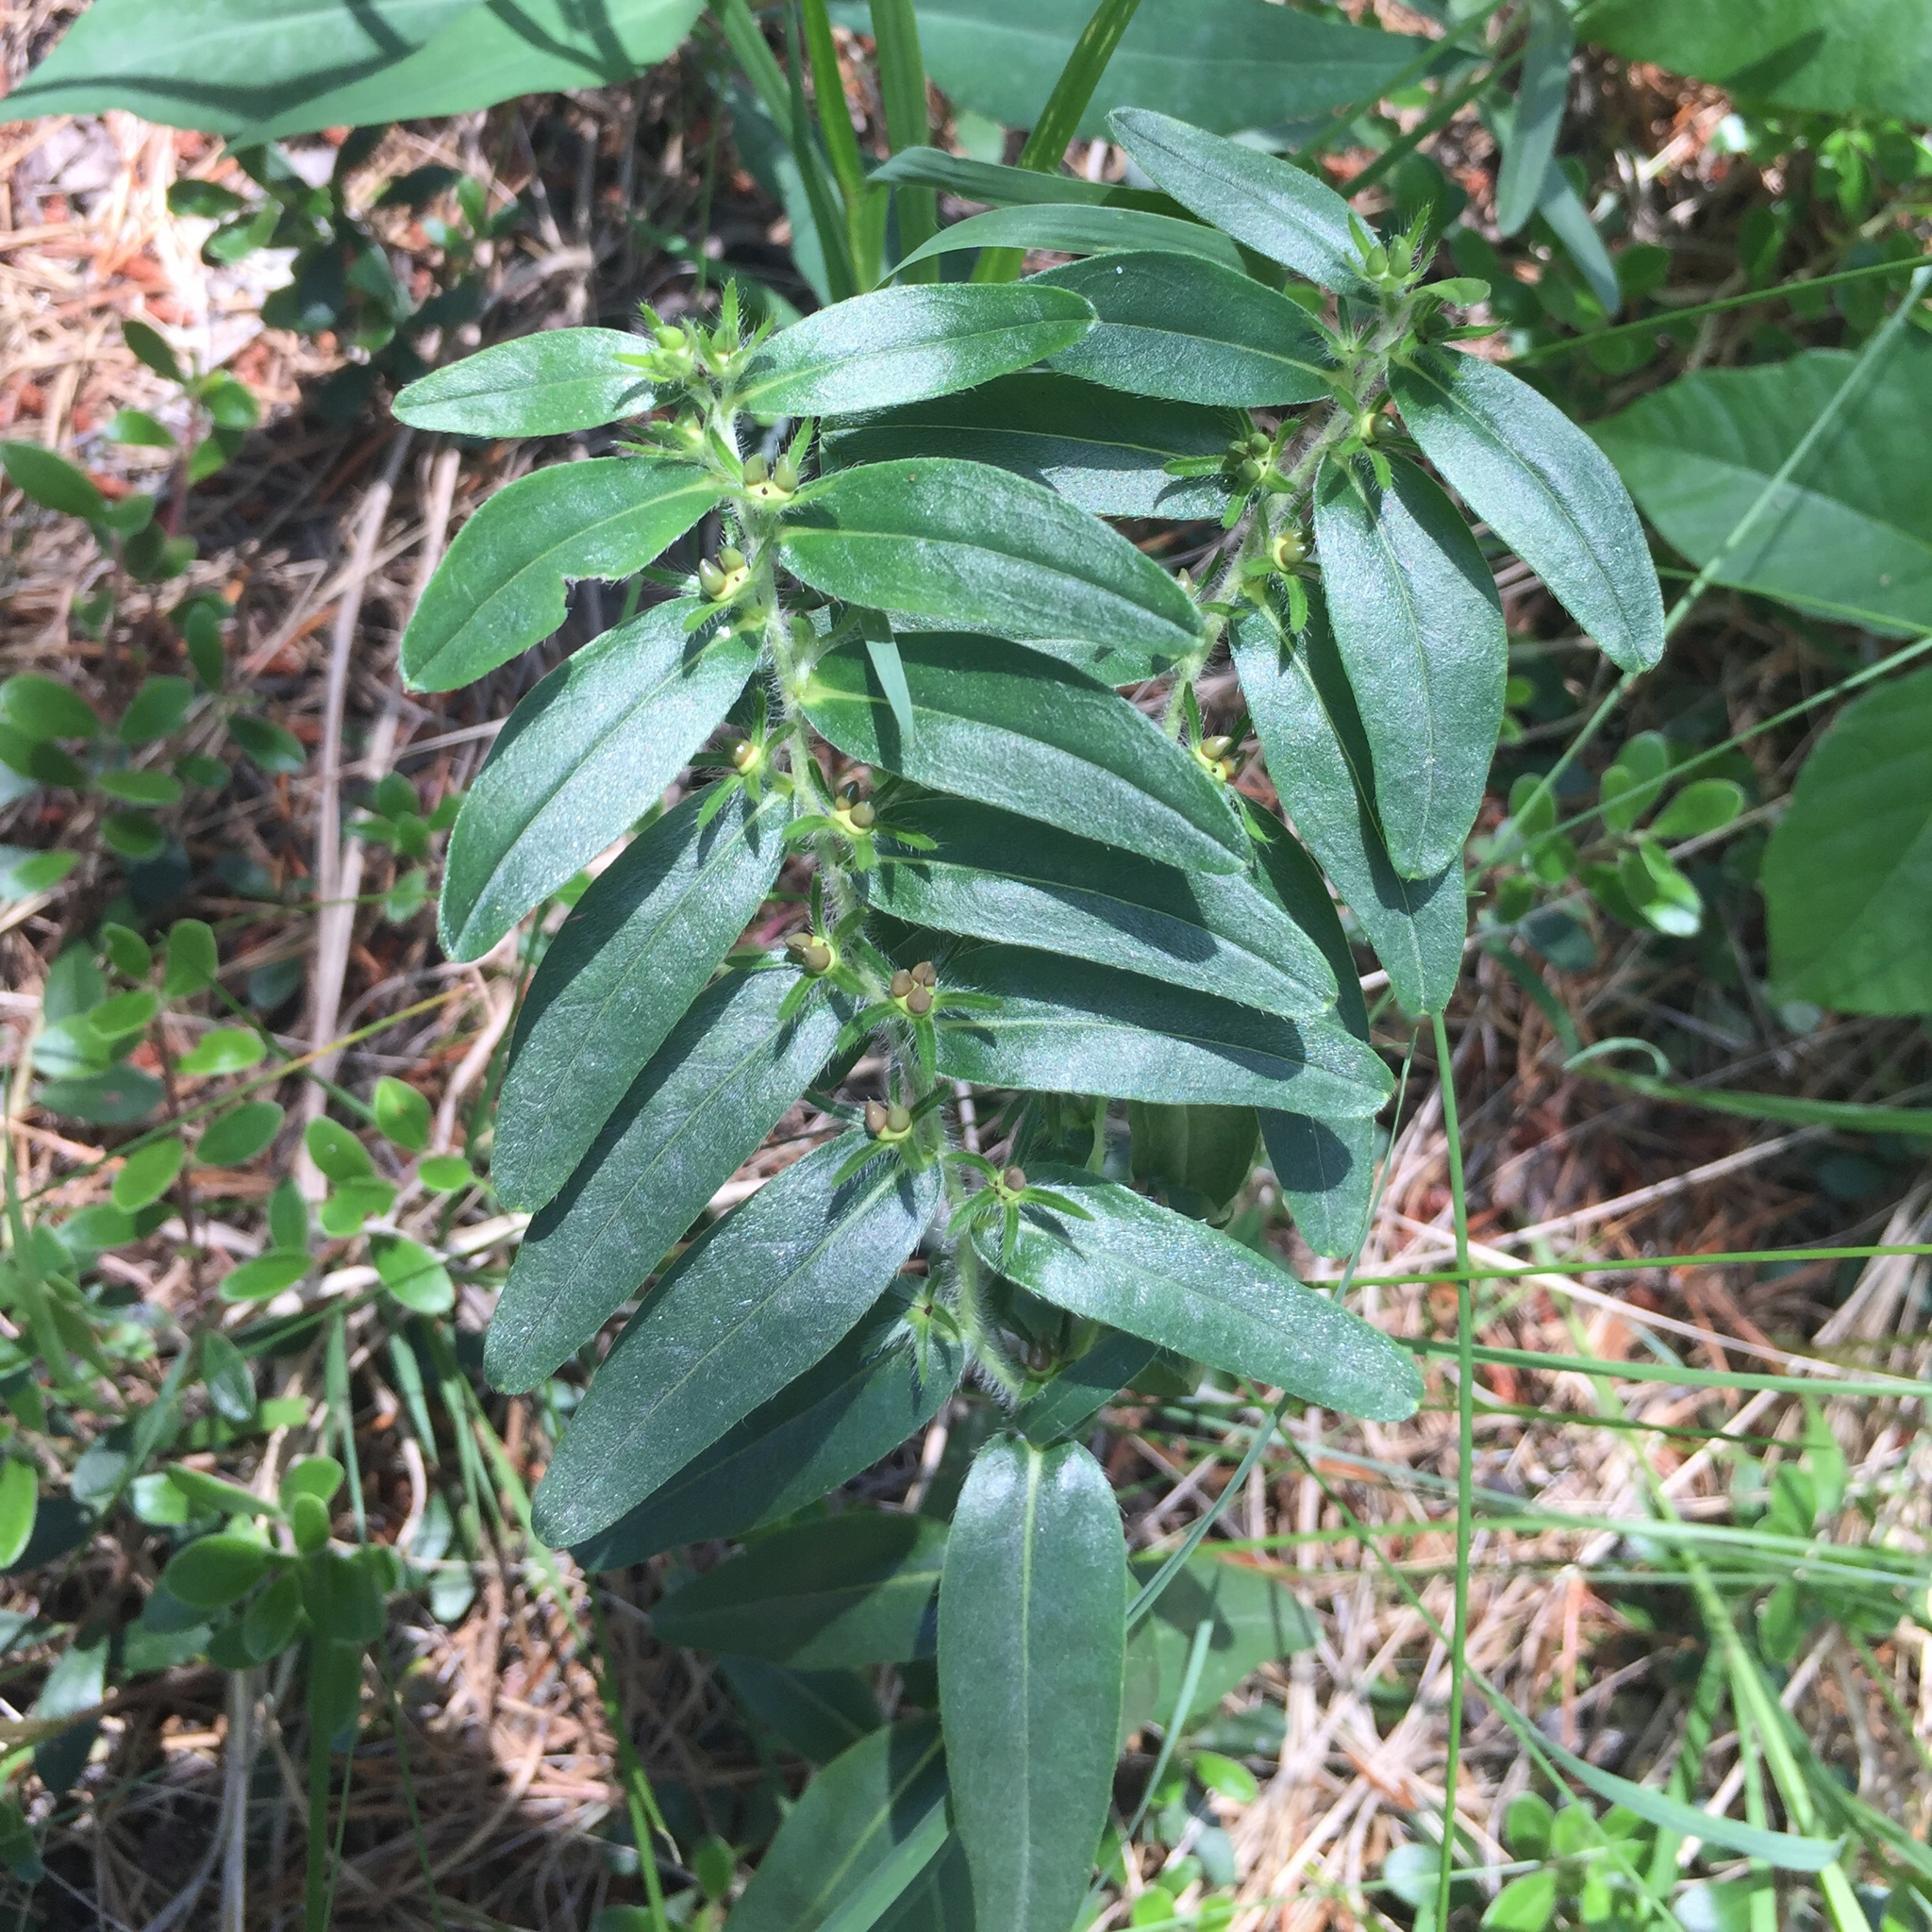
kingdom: Plantae
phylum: Tracheophyta
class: Magnoliopsida
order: Boraginales
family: Boraginaceae
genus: Lithospermum
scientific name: Lithospermum canescens
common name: Hoary puccoon
